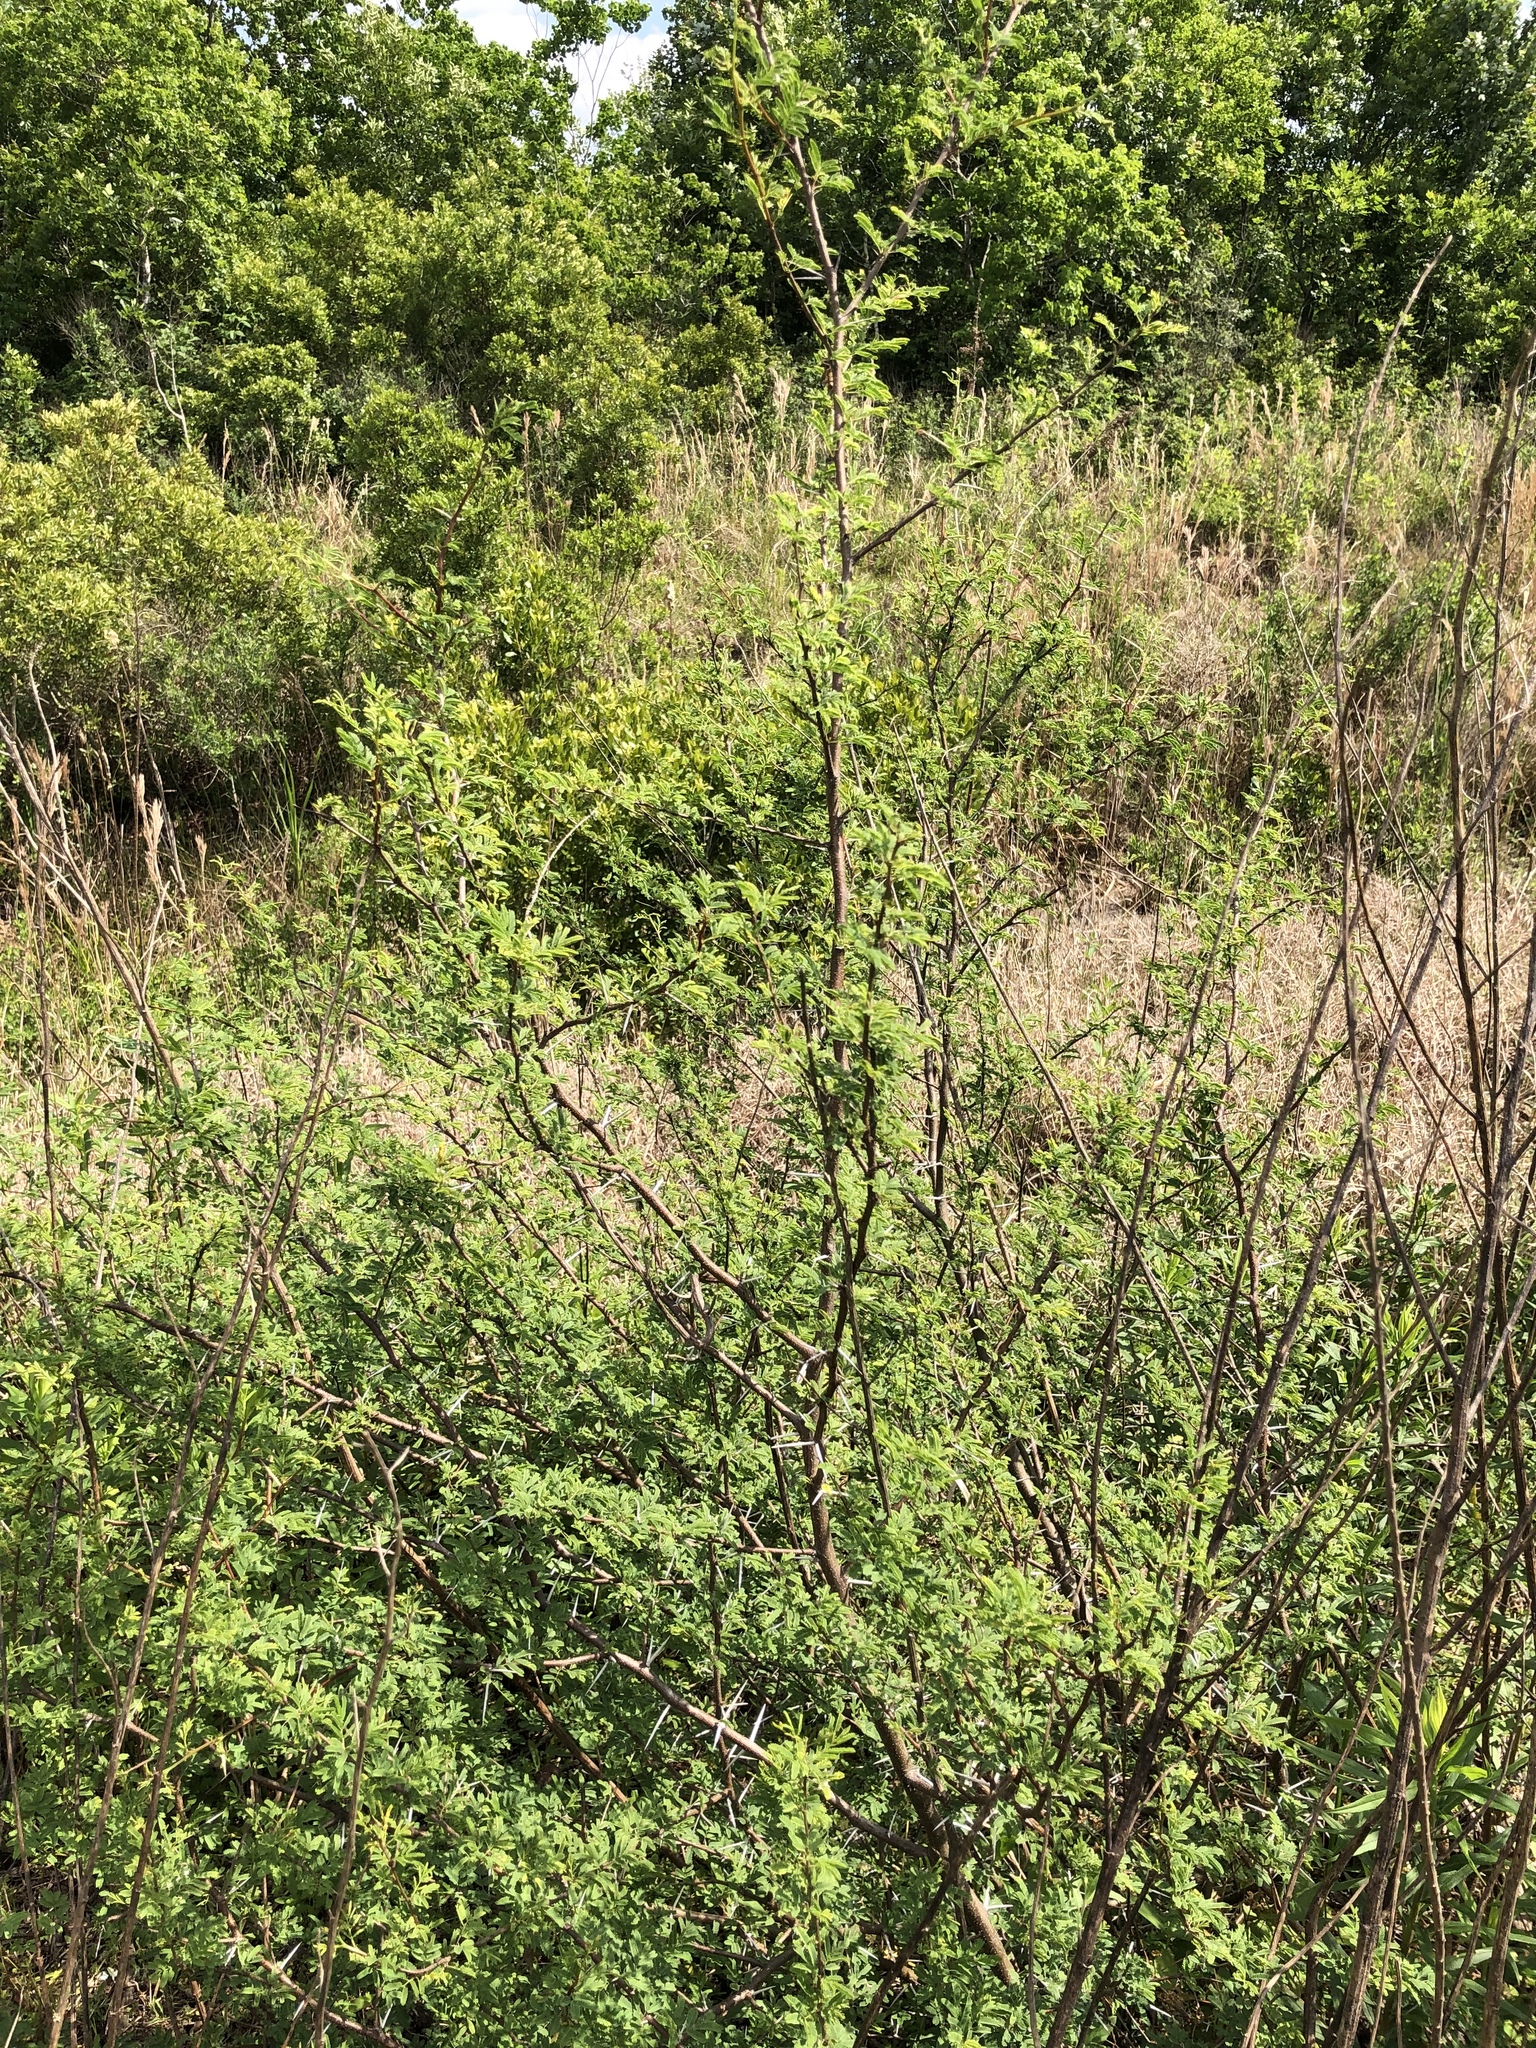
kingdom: Plantae
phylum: Tracheophyta
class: Magnoliopsida
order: Fabales
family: Fabaceae
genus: Vachellia
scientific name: Vachellia farnesiana
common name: Sweet acacia
